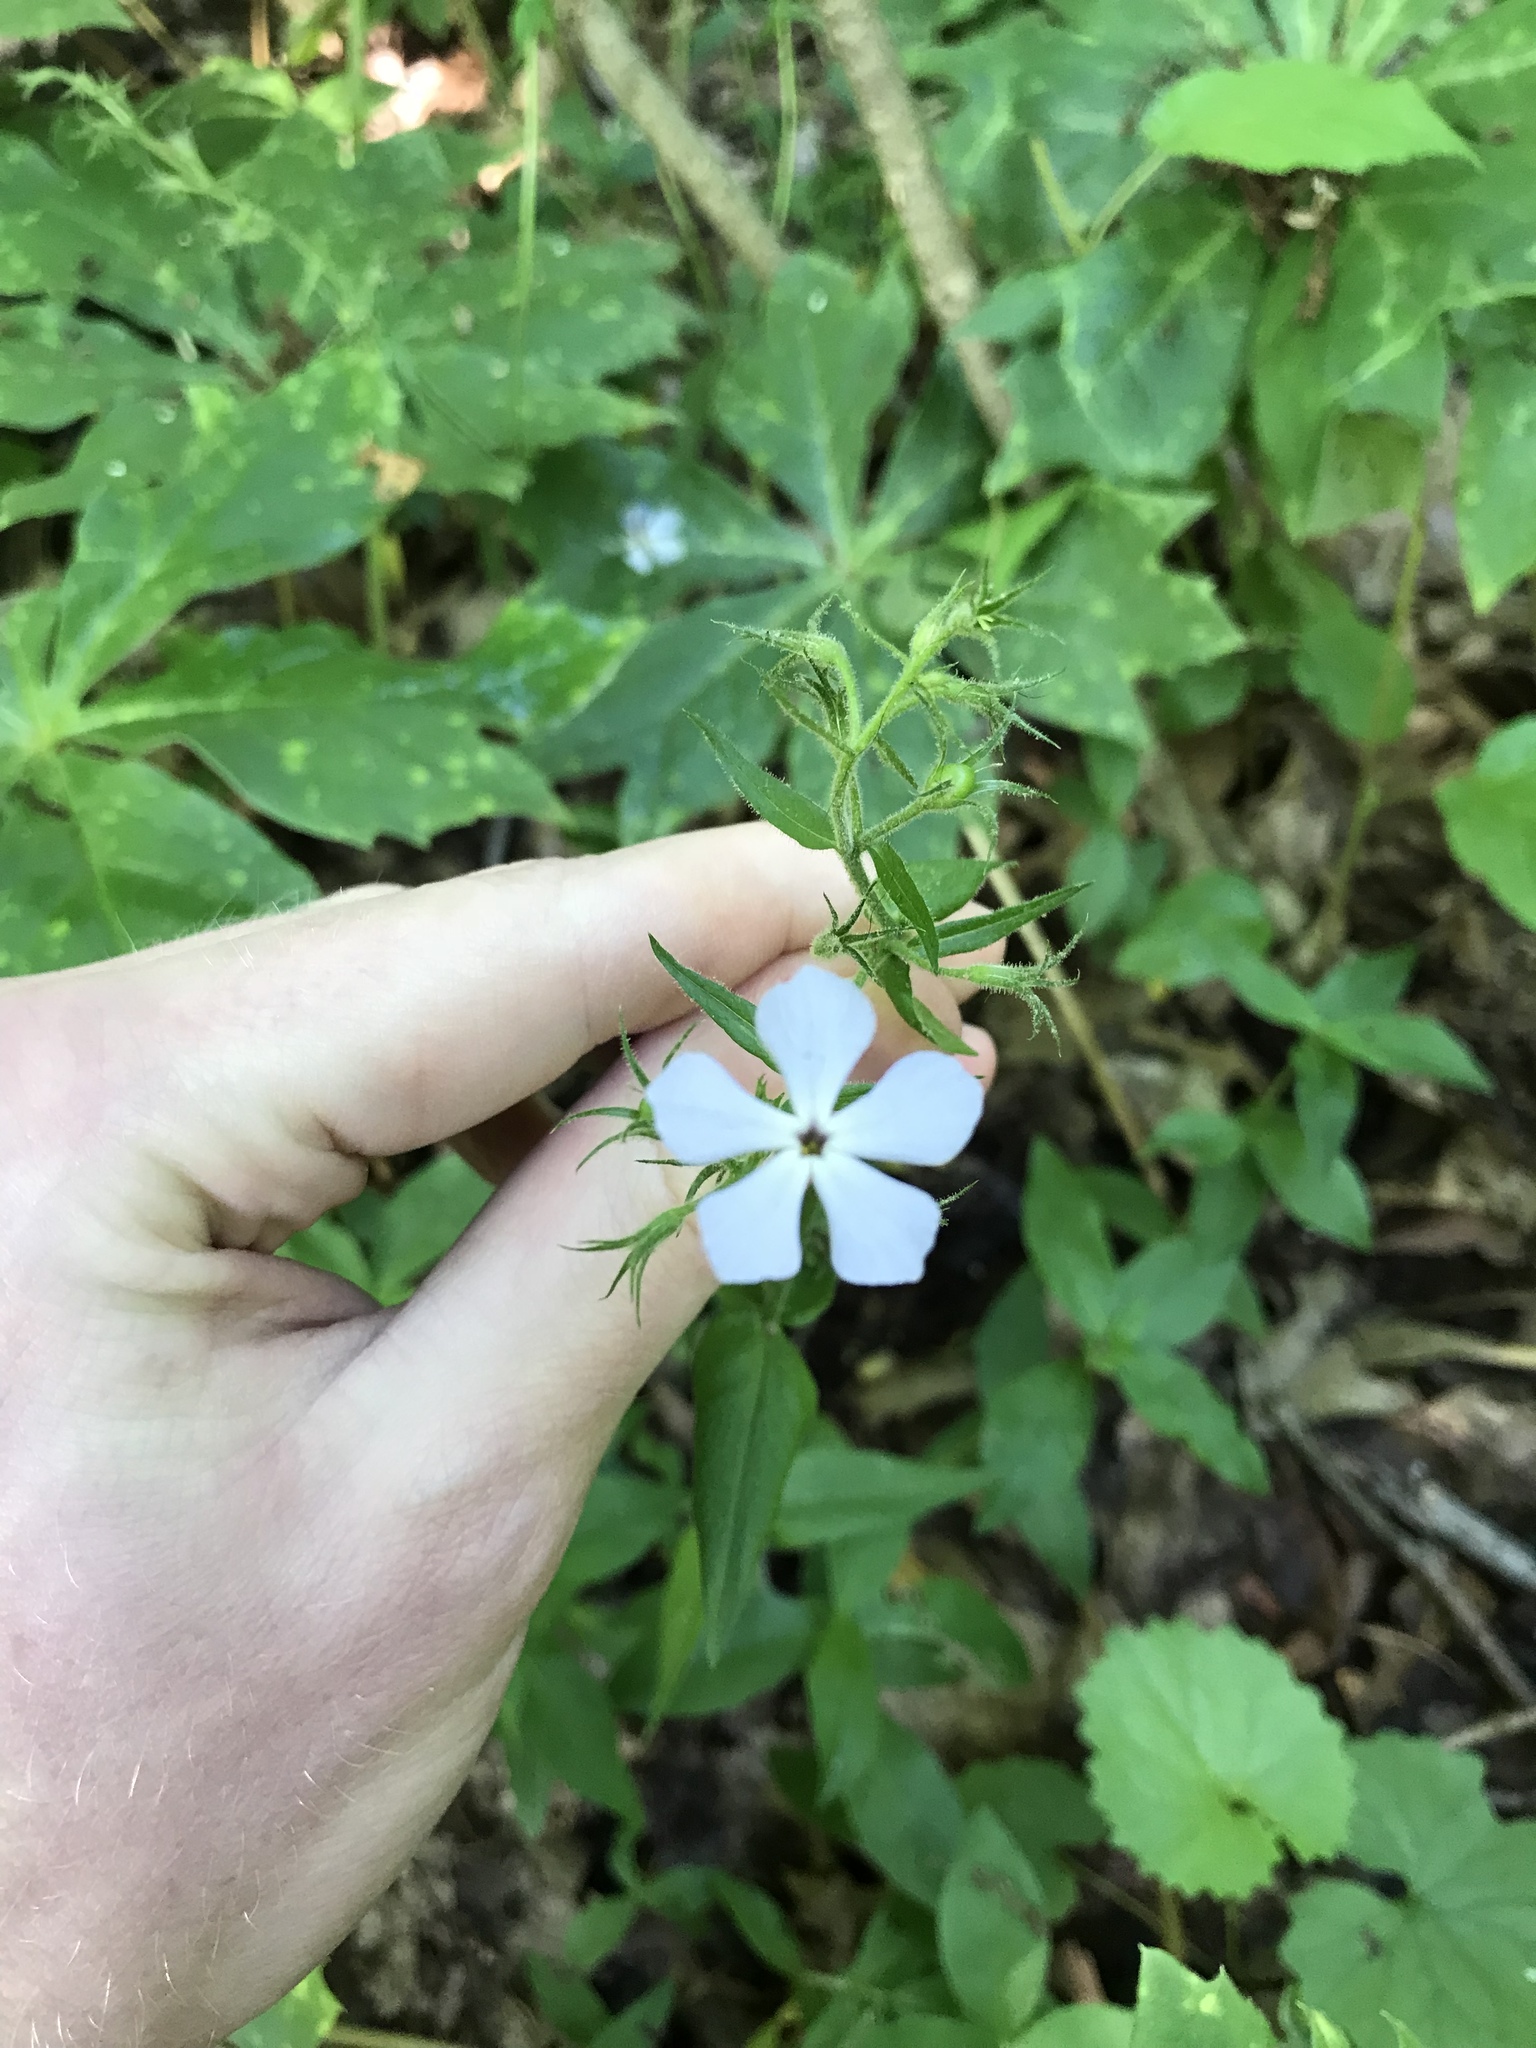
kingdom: Plantae
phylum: Tracheophyta
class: Magnoliopsida
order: Ericales
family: Polemoniaceae
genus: Phlox
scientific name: Phlox divaricata
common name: Blue phlox
